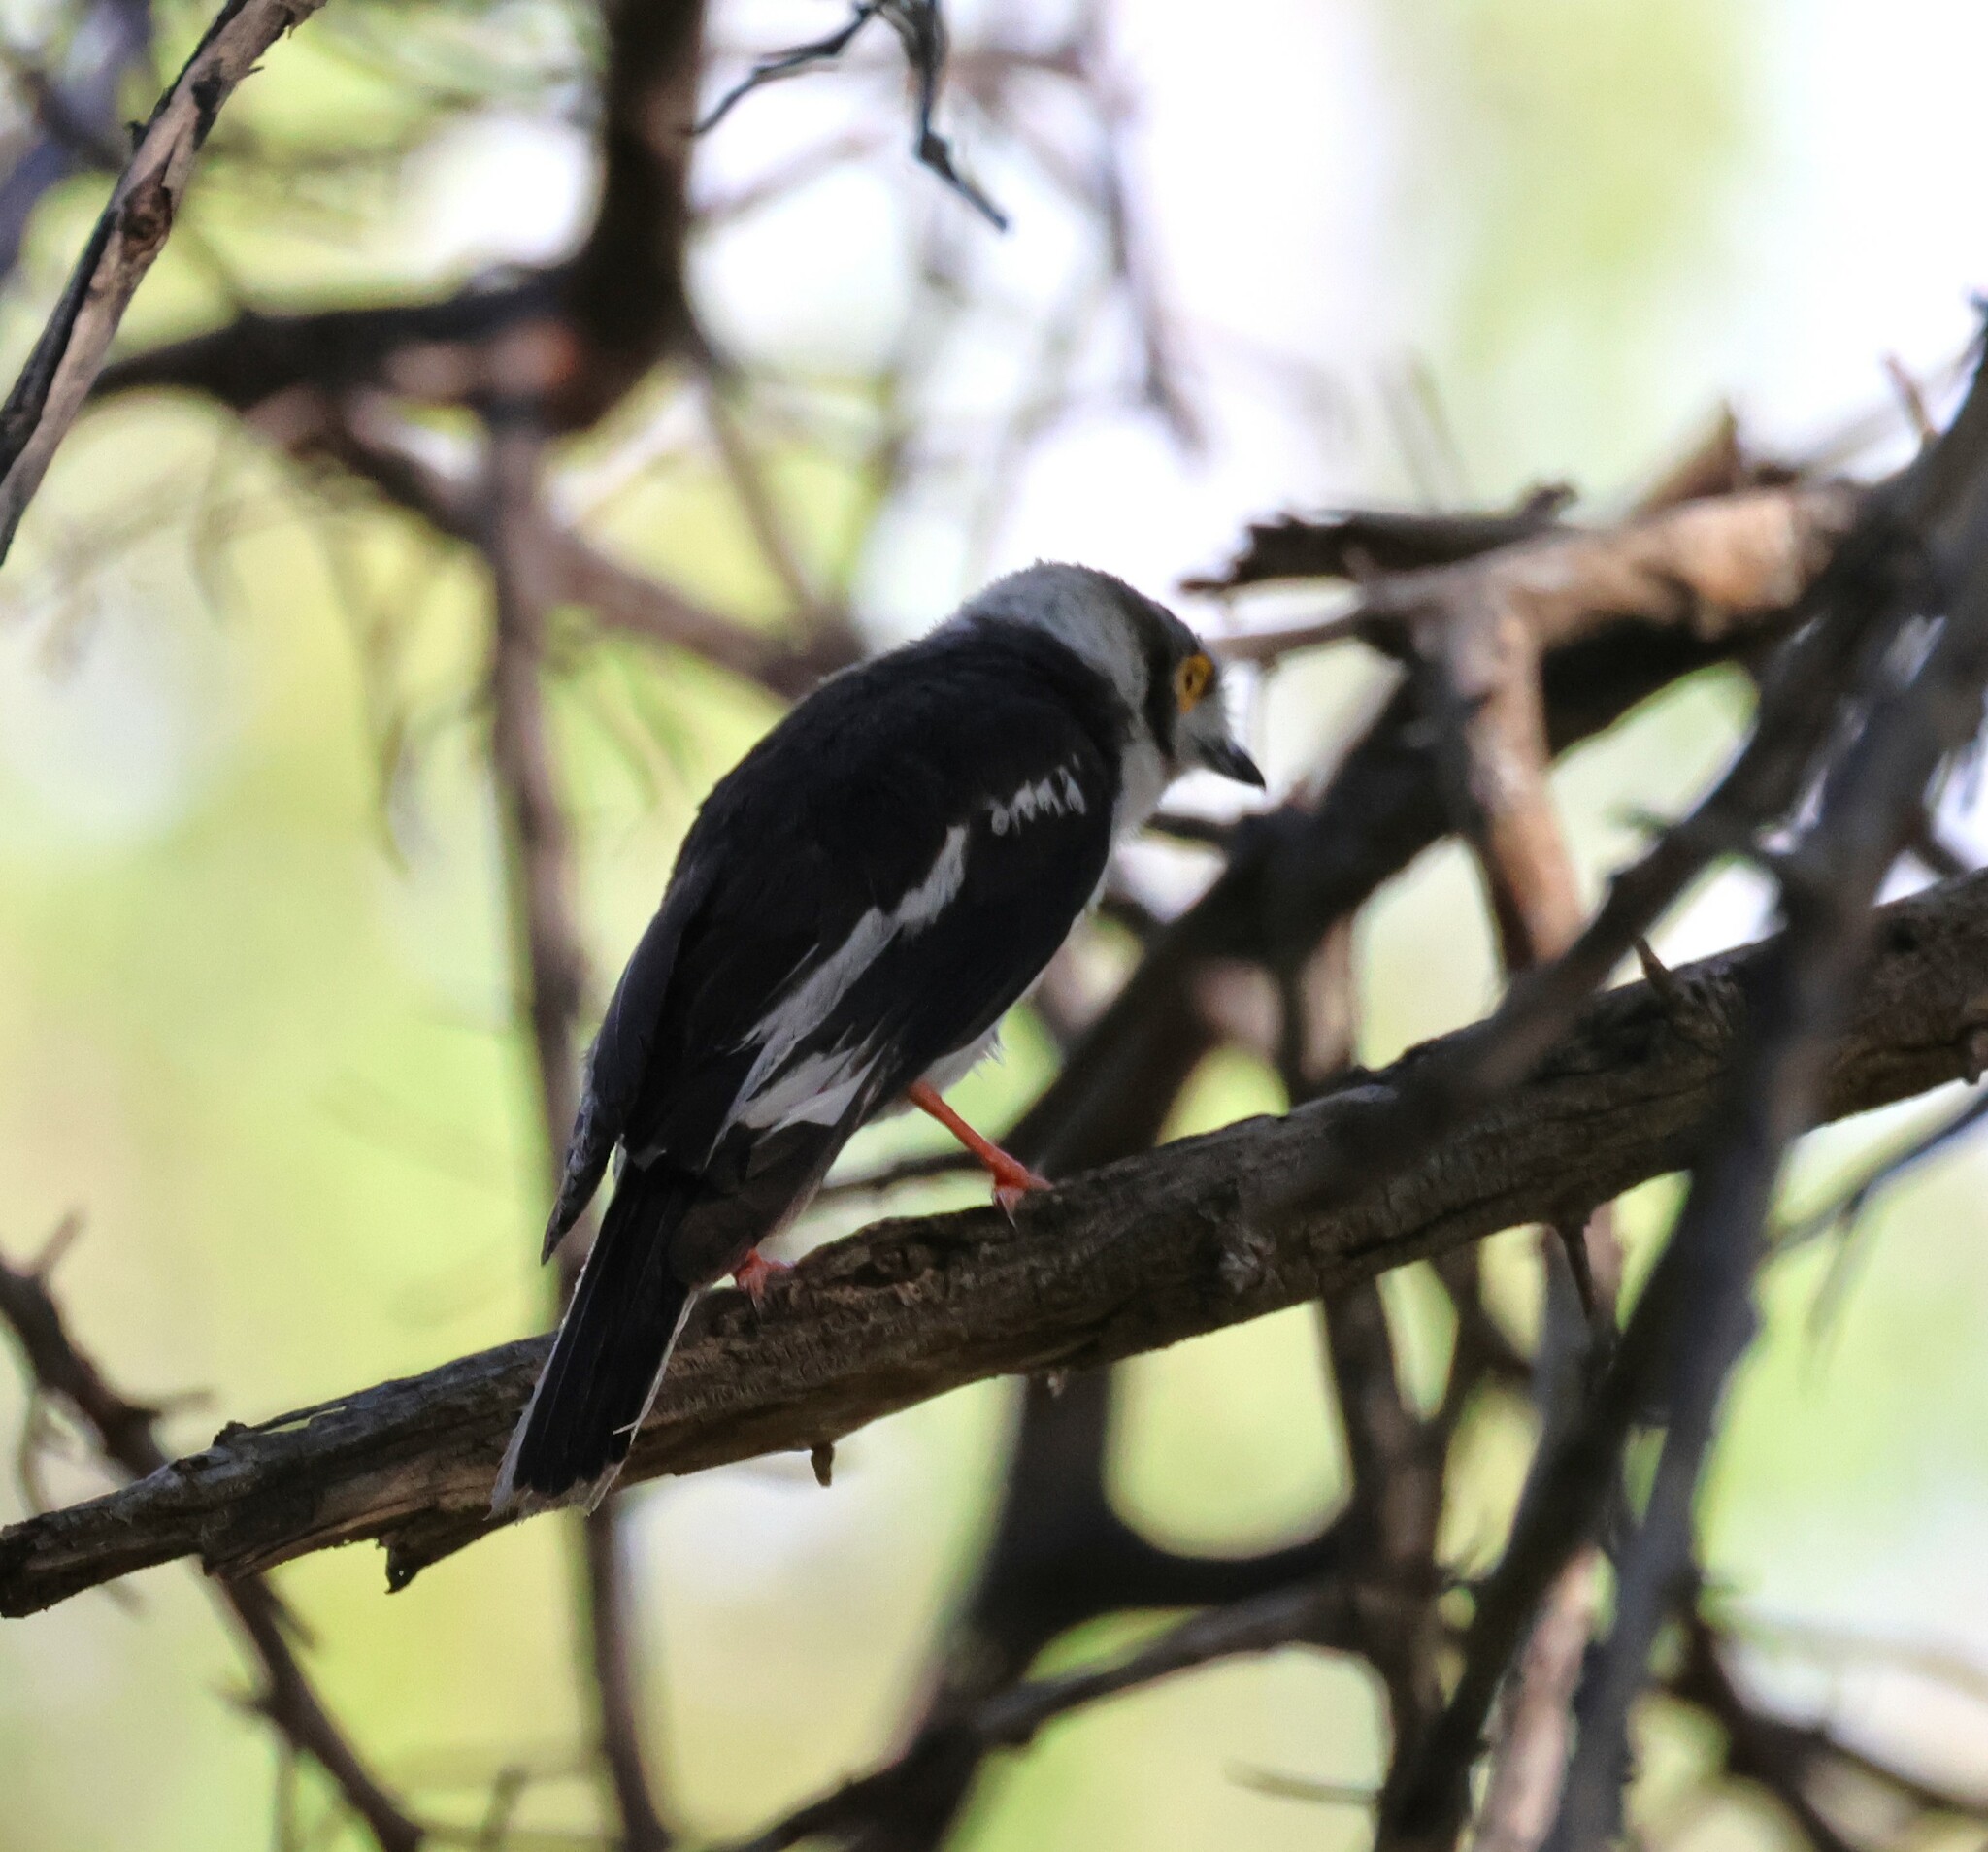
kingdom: Animalia
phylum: Chordata
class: Aves
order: Passeriformes
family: Prionopidae
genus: Prionops
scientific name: Prionops plumatus
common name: White-crested helmetshrike
